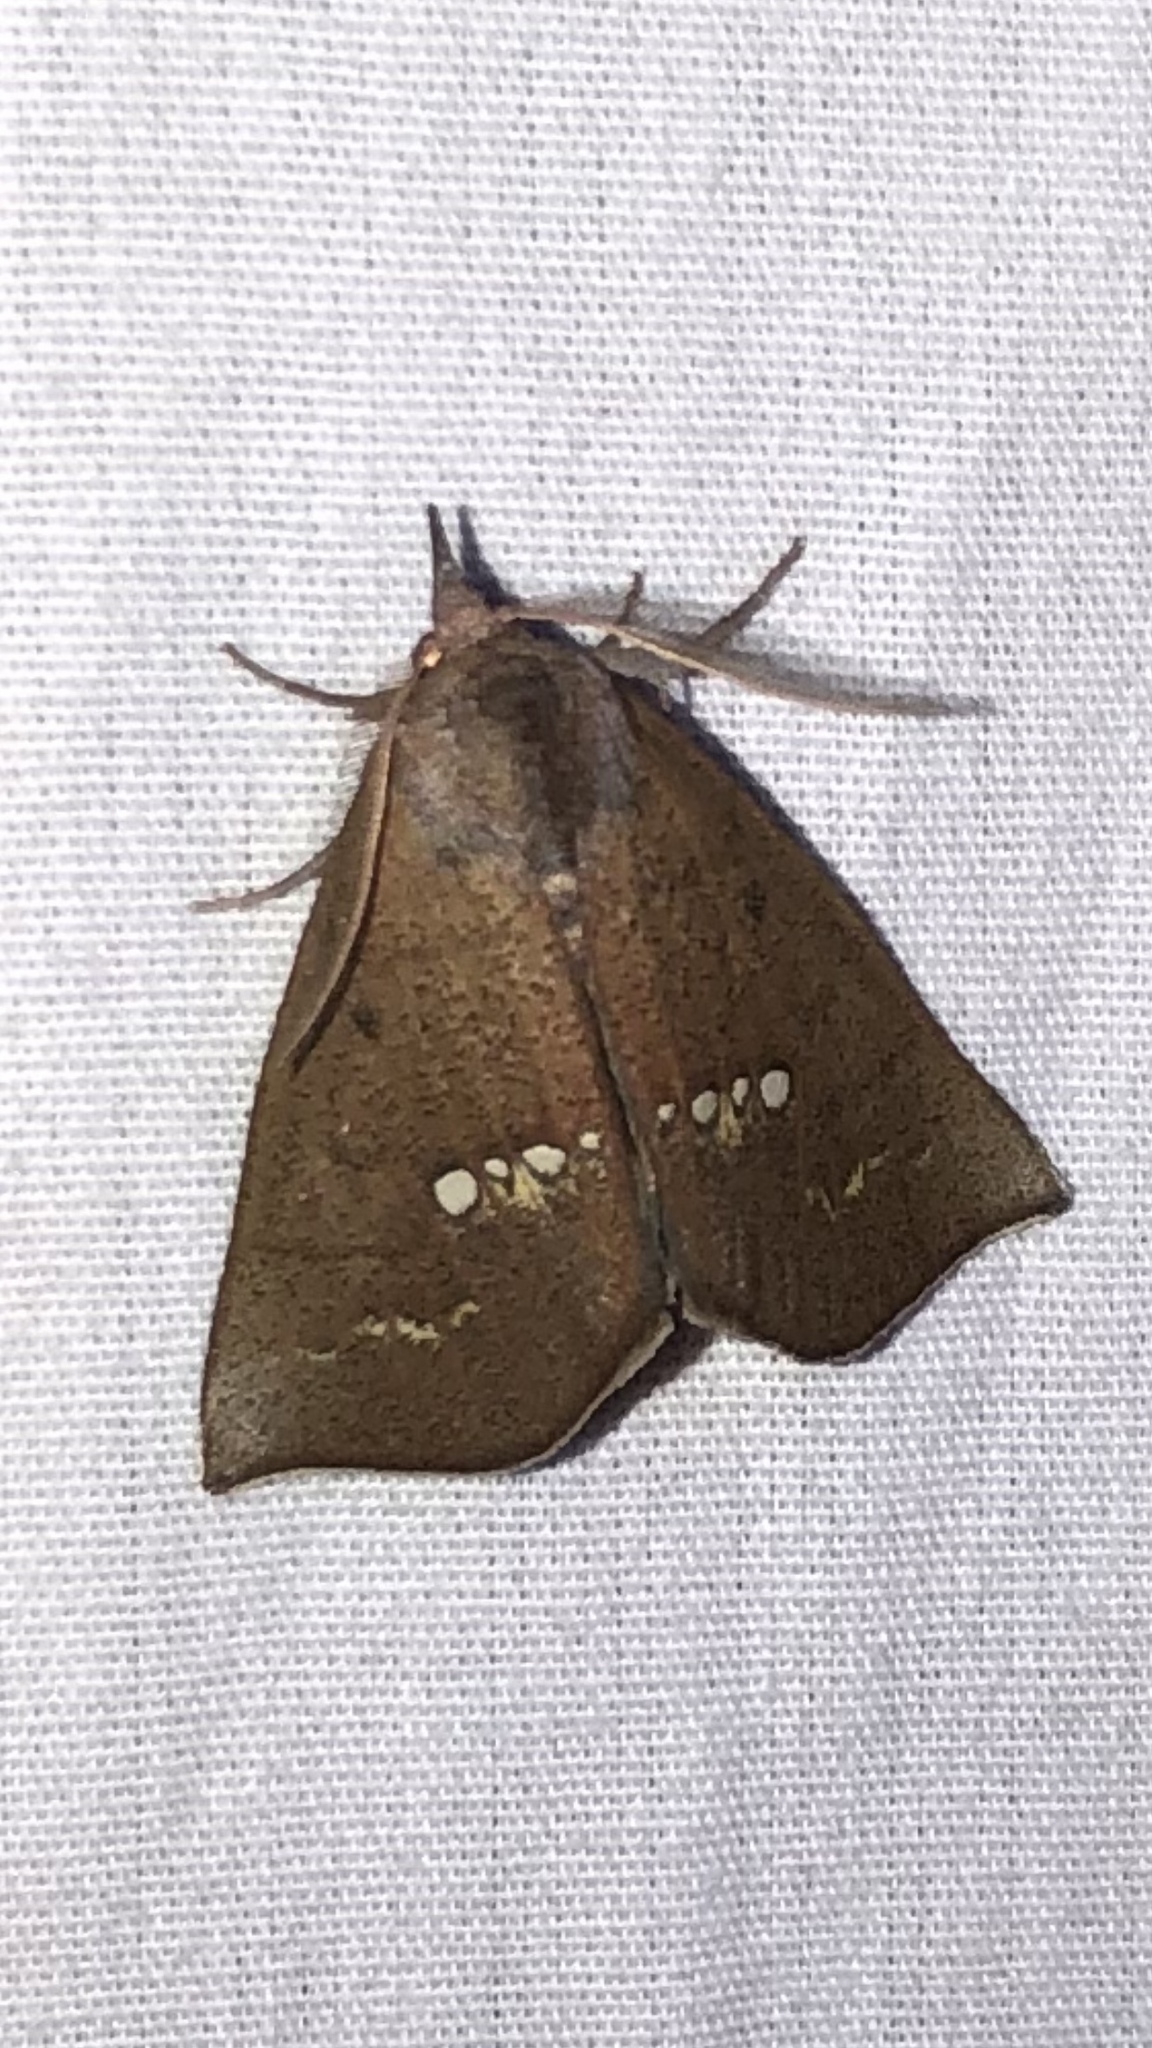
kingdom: Animalia
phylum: Arthropoda
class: Insecta
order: Lepidoptera
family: Erebidae
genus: Hypsoropha
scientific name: Hypsoropha monilis
